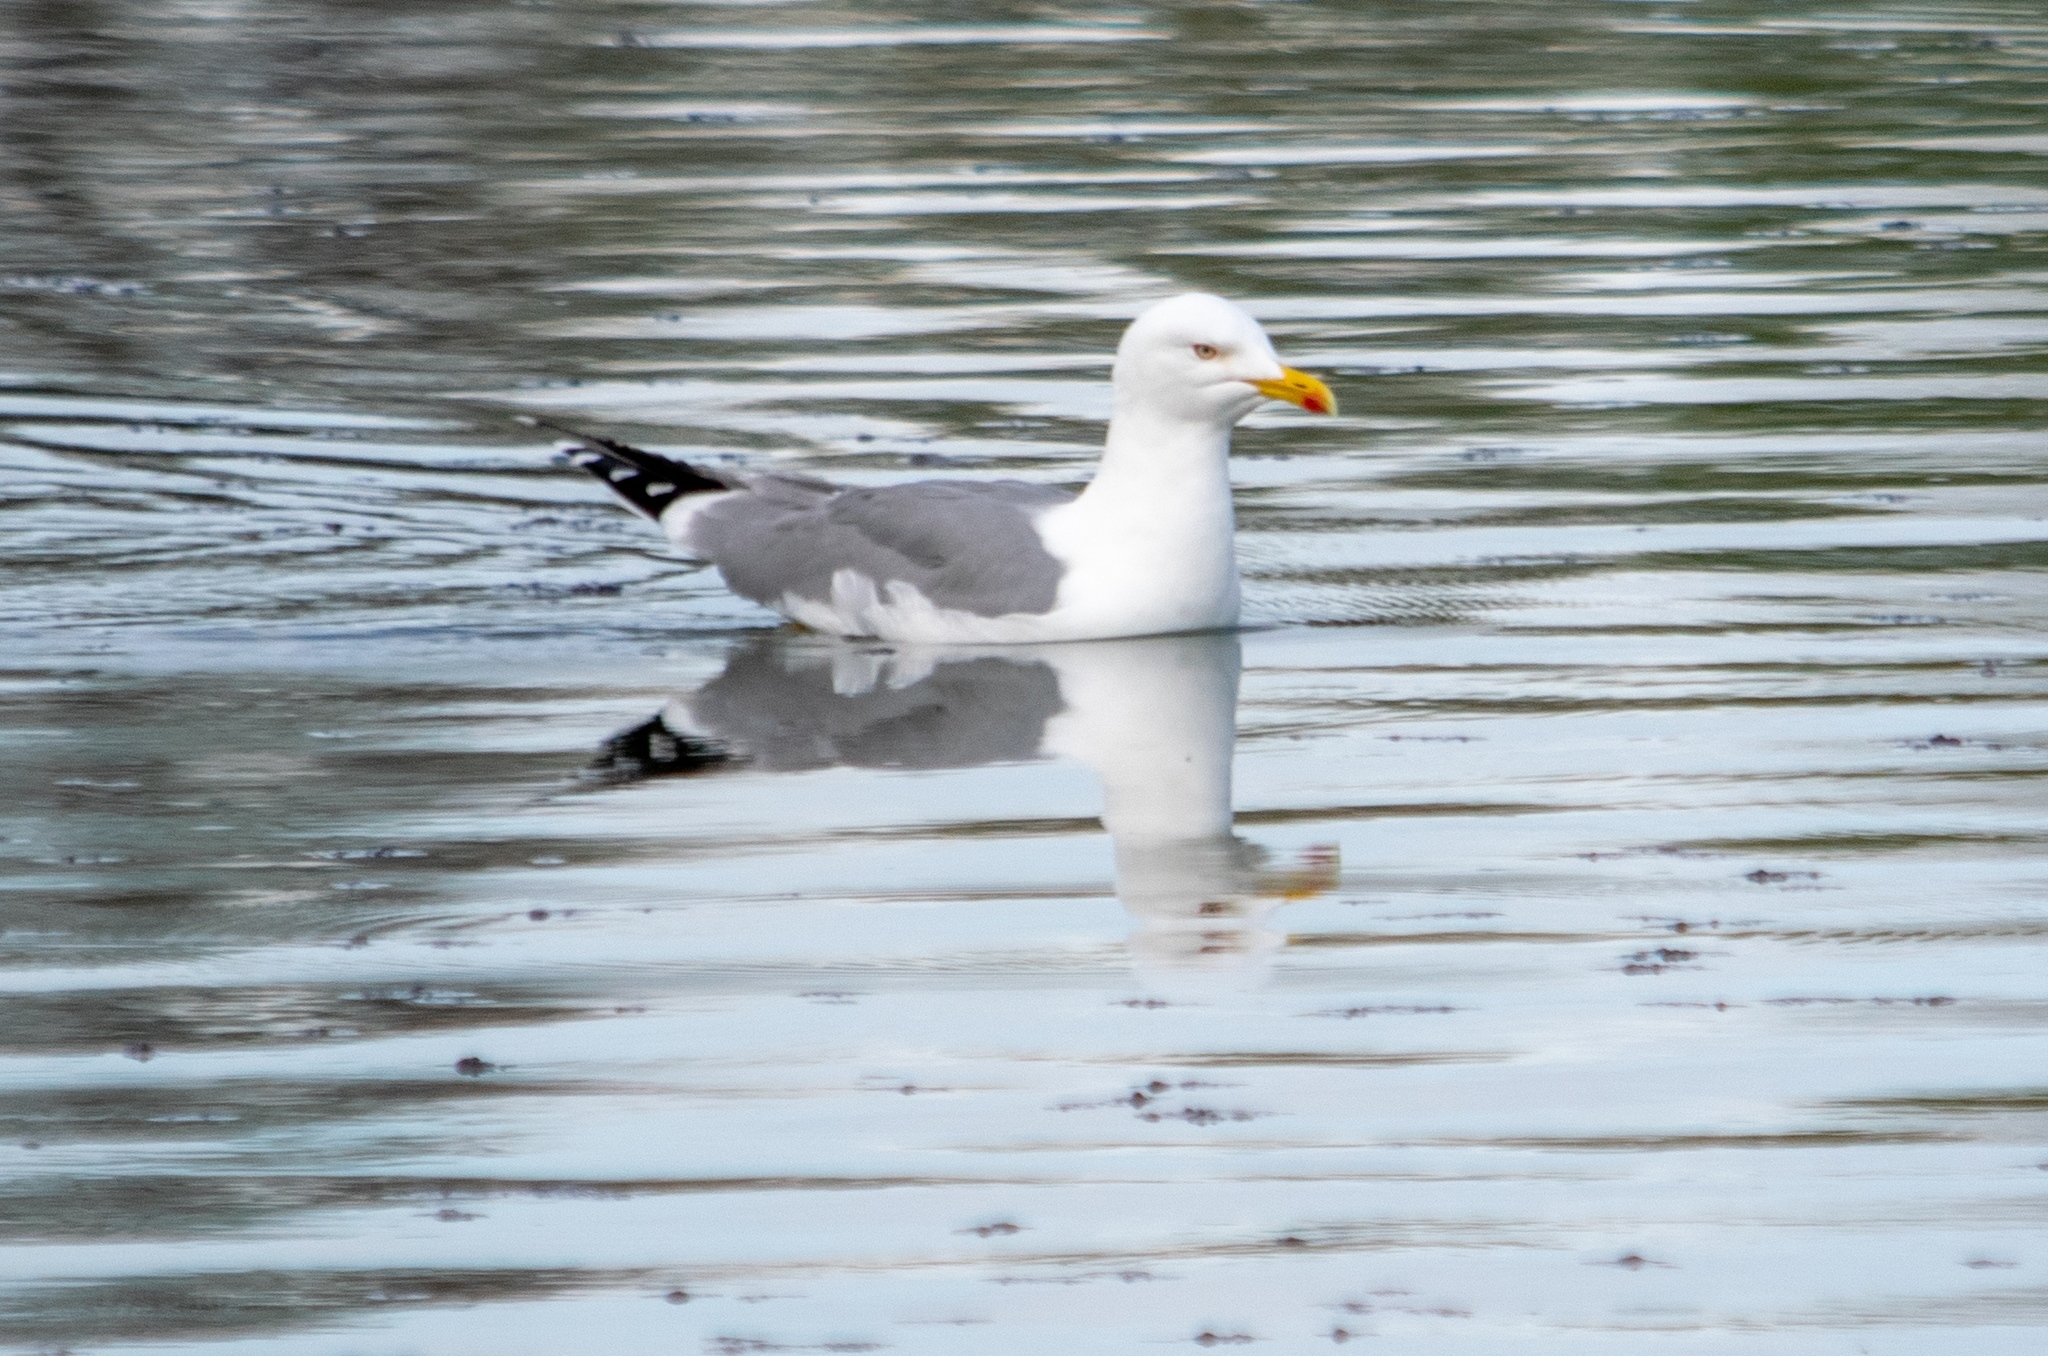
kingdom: Animalia
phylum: Chordata
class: Aves
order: Charadriiformes
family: Laridae
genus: Larus
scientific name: Larus michahellis
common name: Yellow-legged gull
